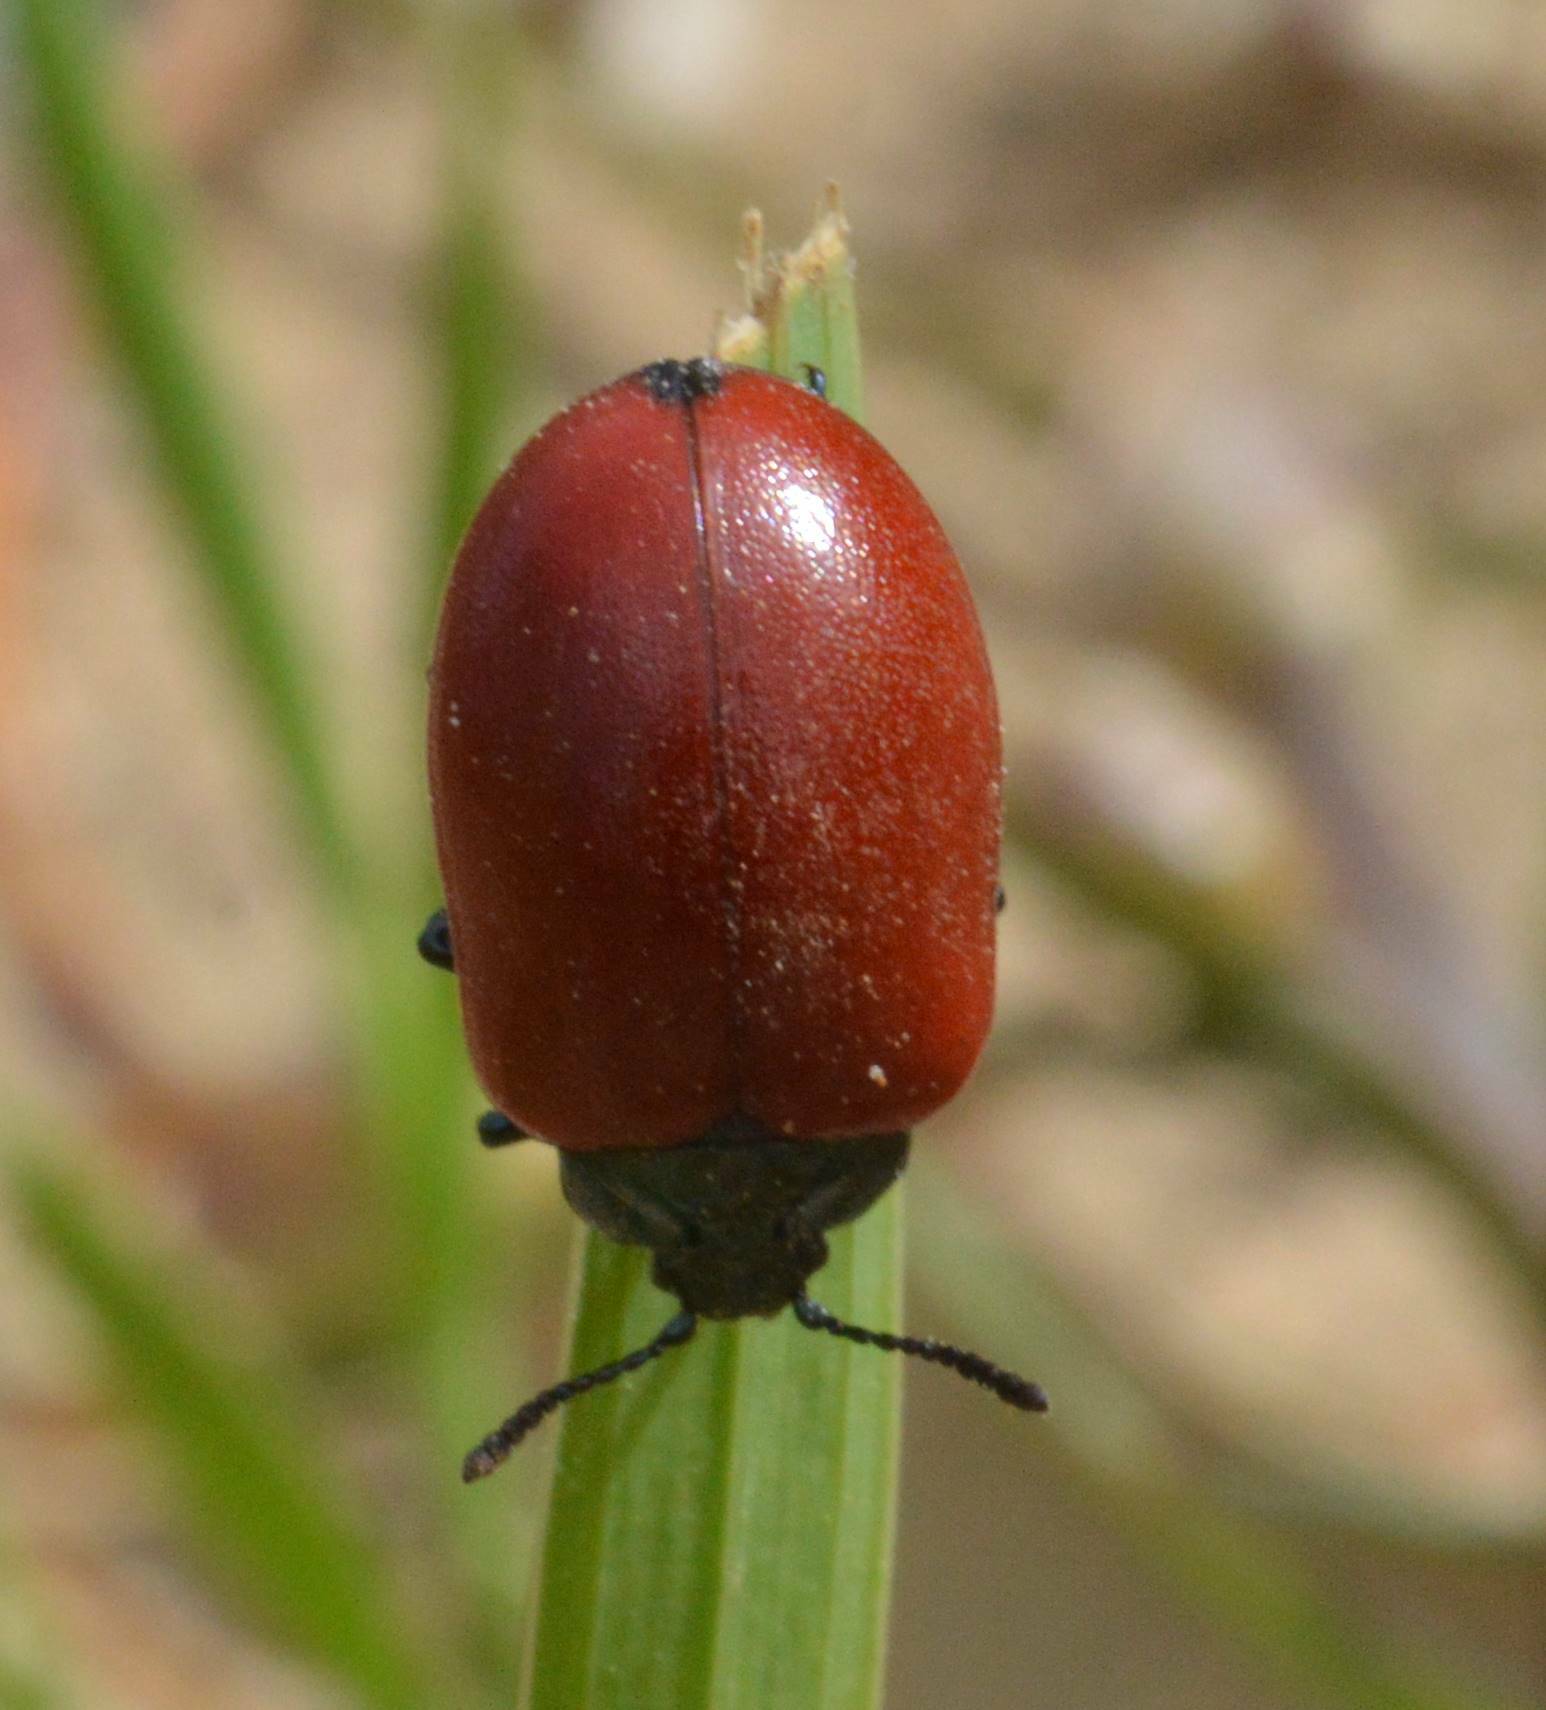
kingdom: Animalia
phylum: Arthropoda
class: Insecta
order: Coleoptera
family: Chrysomelidae
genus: Chrysomela
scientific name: Chrysomela populi
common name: Red poplar leaf beetle
